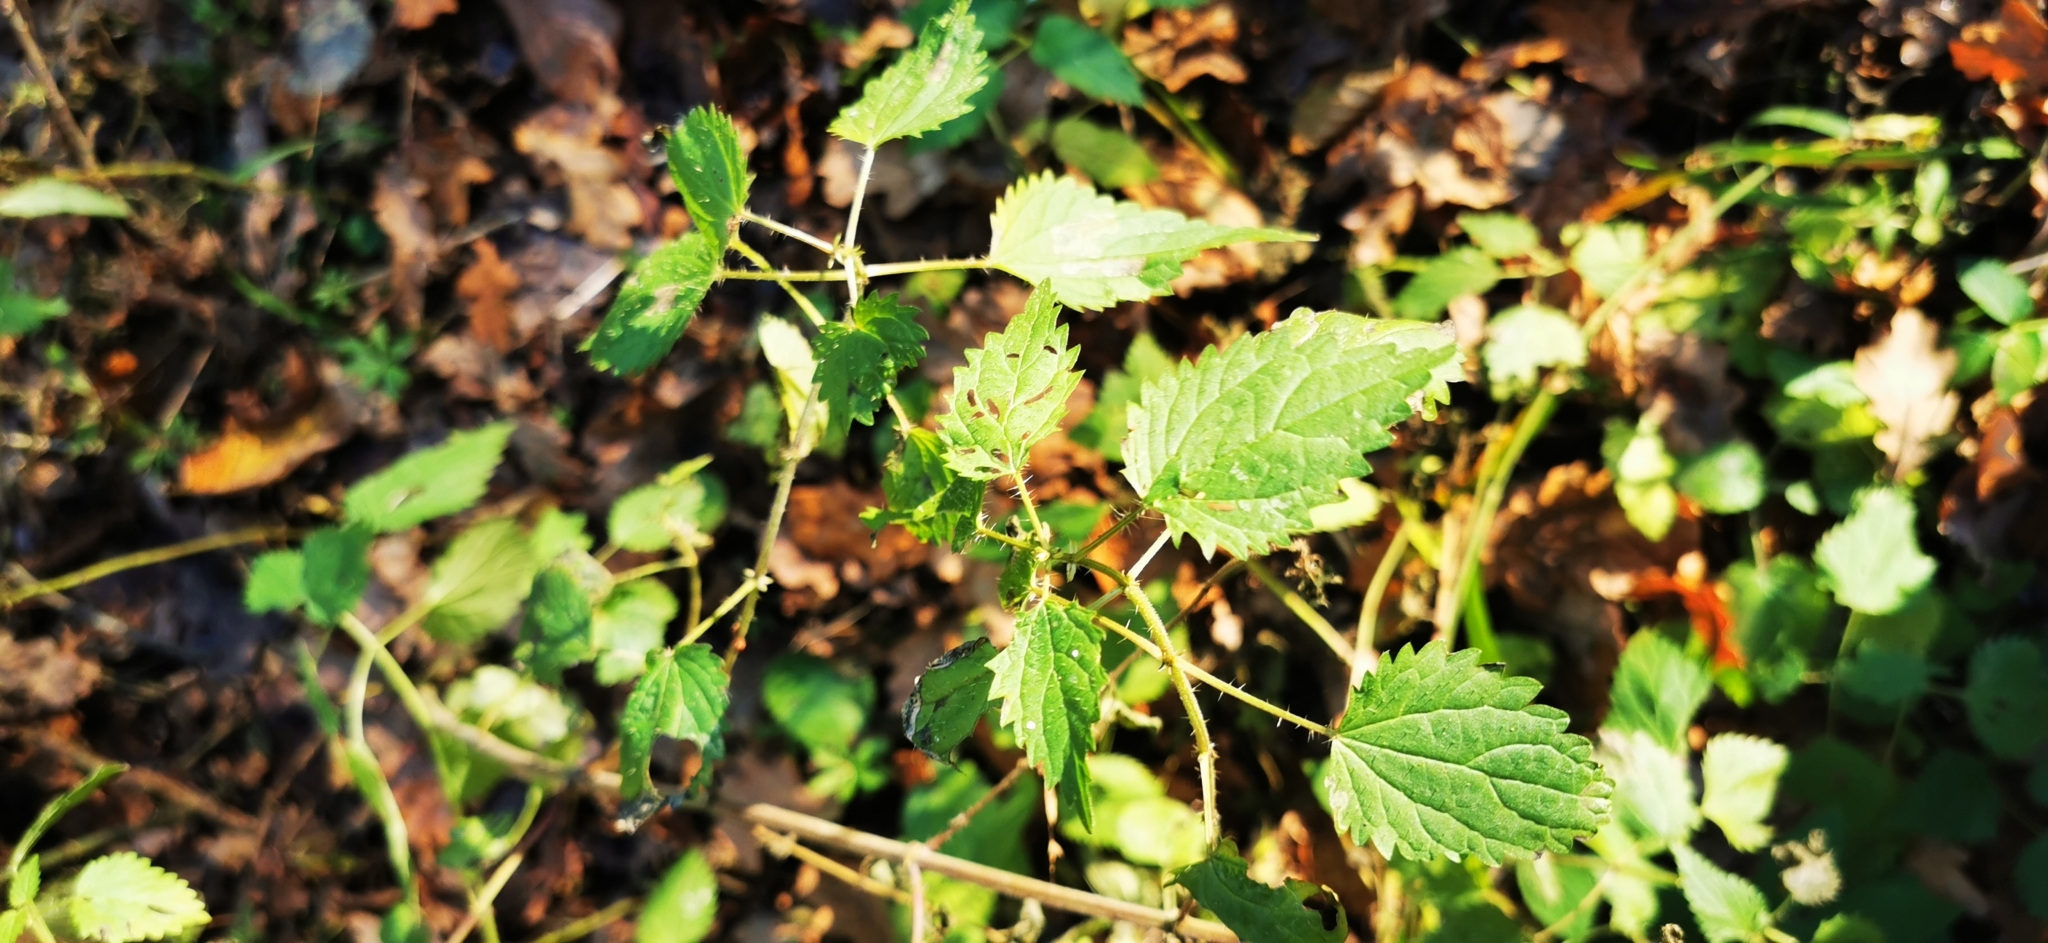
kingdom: Plantae
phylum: Tracheophyta
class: Magnoliopsida
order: Rosales
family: Urticaceae
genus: Urtica
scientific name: Urtica dioica
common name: Common nettle
